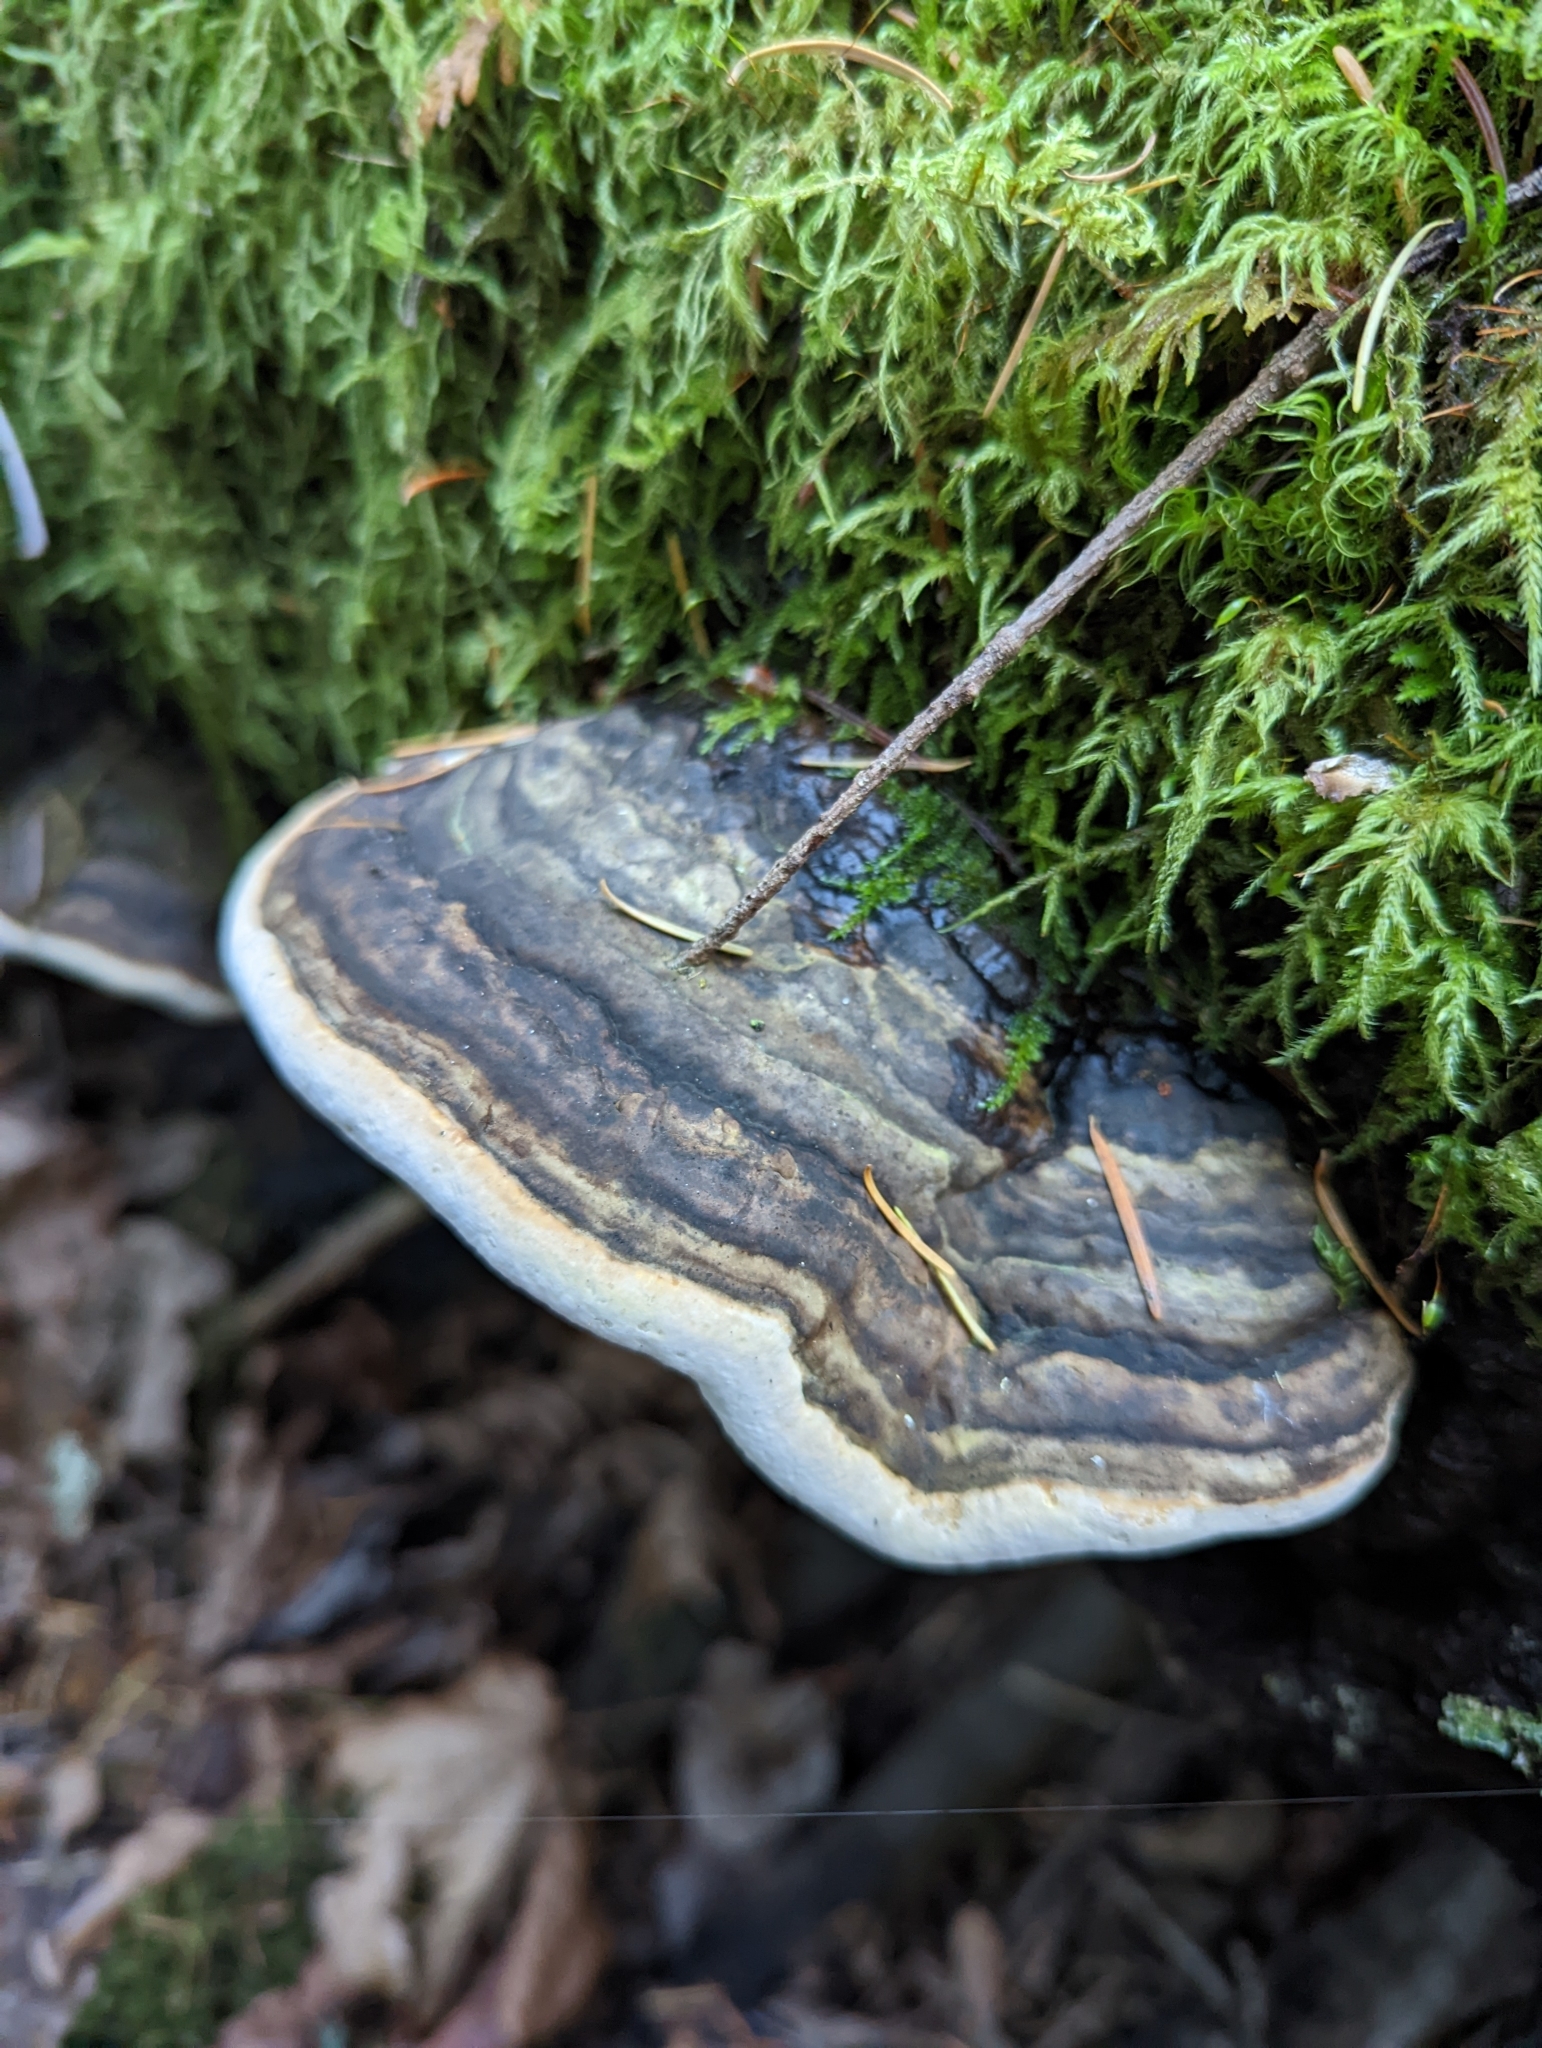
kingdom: Fungi
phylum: Basidiomycota
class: Agaricomycetes
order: Polyporales
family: Fomitopsidaceae
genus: Fomitopsis
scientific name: Fomitopsis ochracea
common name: American brown fomitopsis
